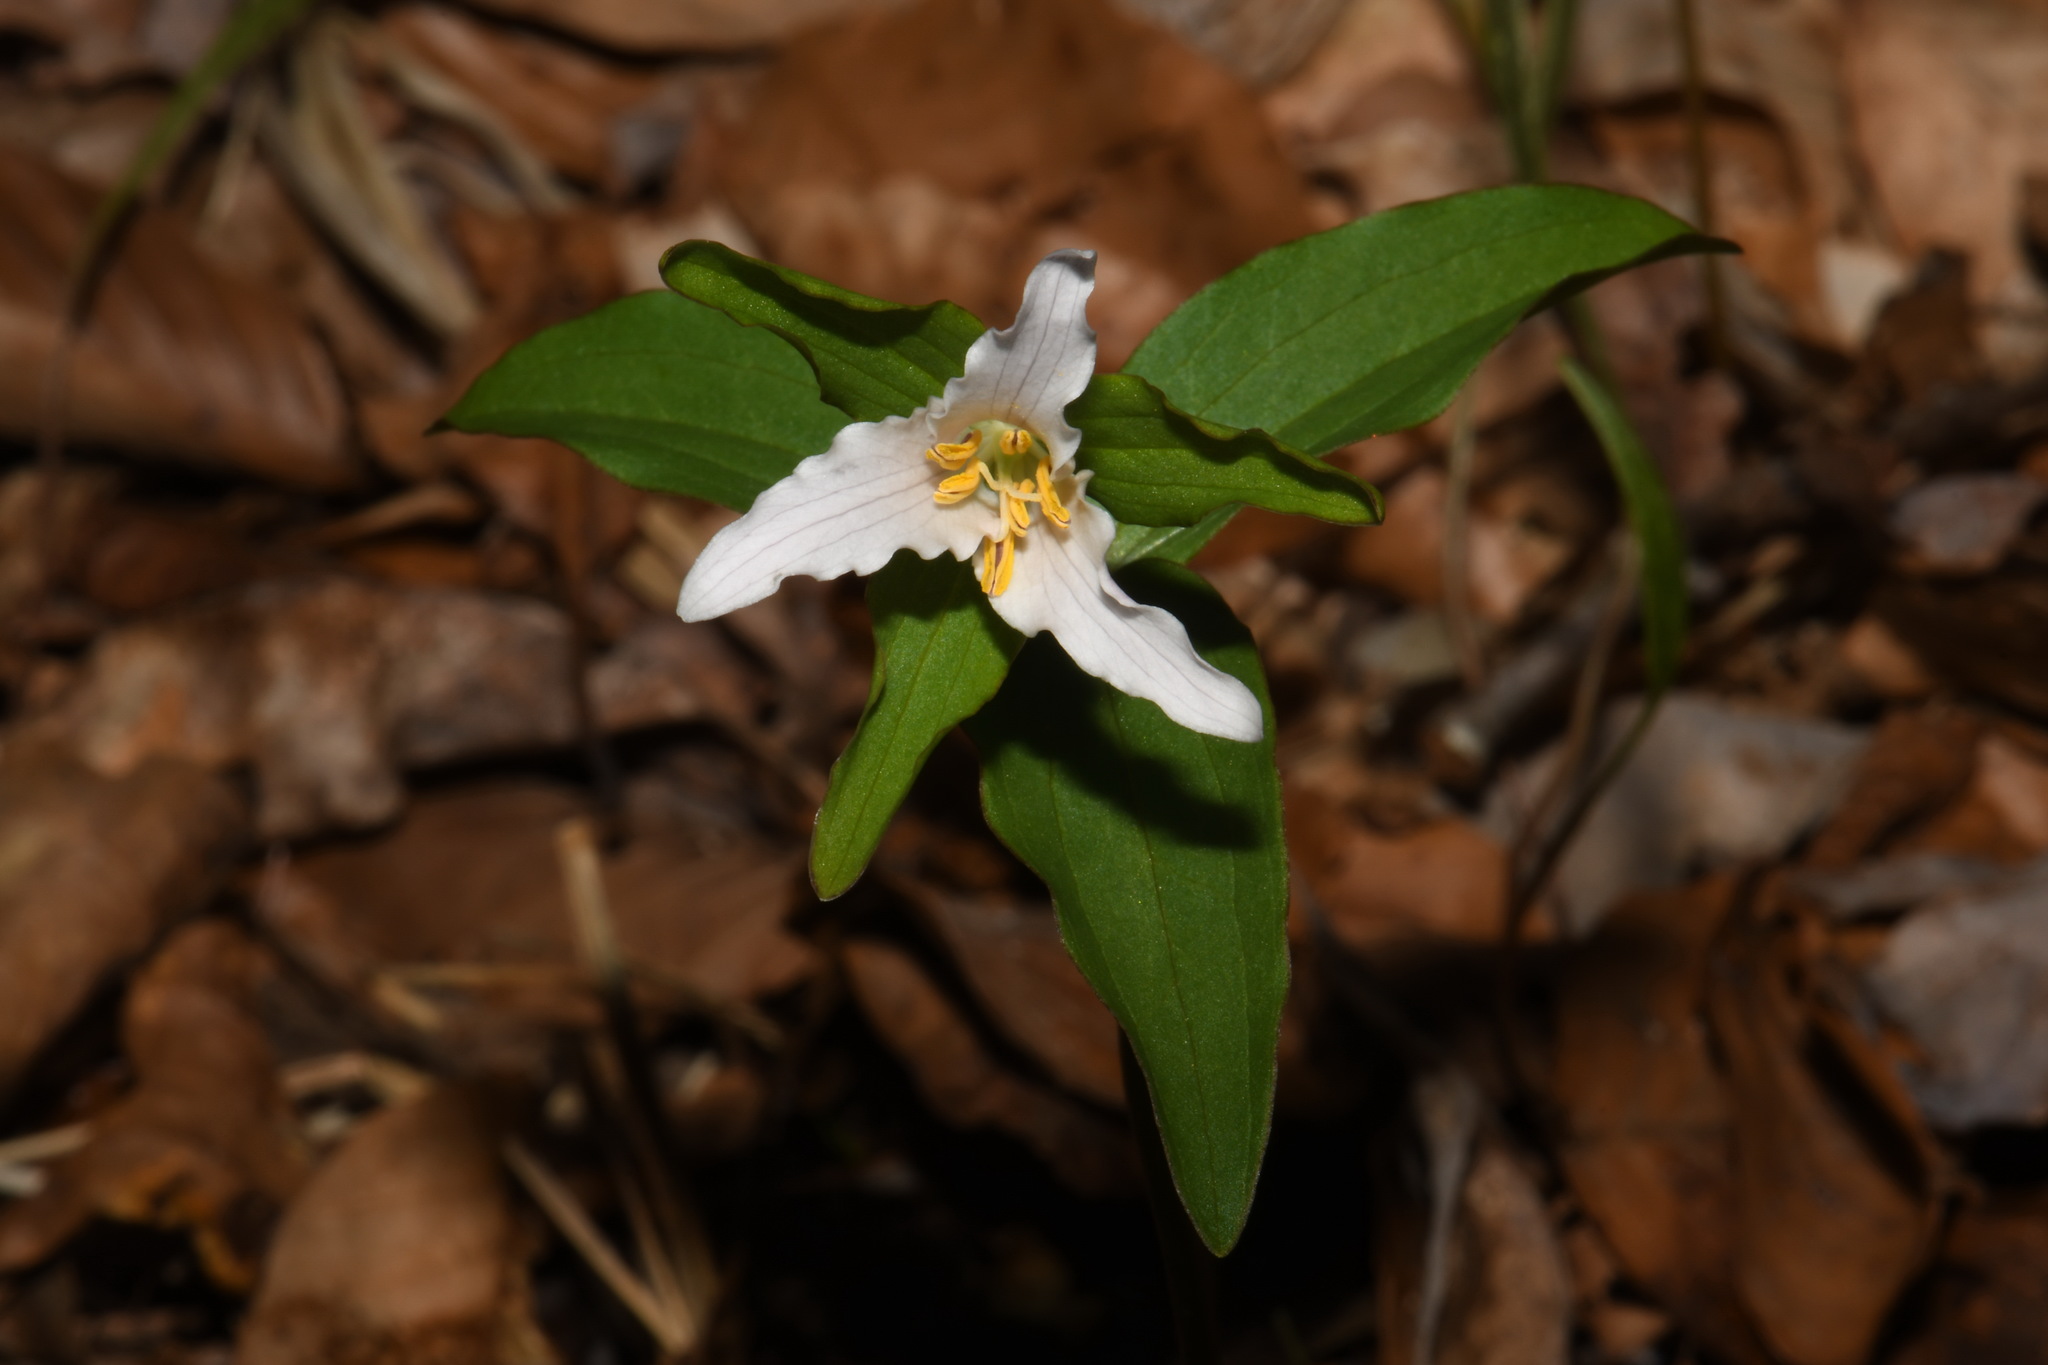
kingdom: Plantae
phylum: Tracheophyta
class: Liliopsida
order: Liliales
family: Melanthiaceae
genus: Trillium
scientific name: Trillium pusillum
